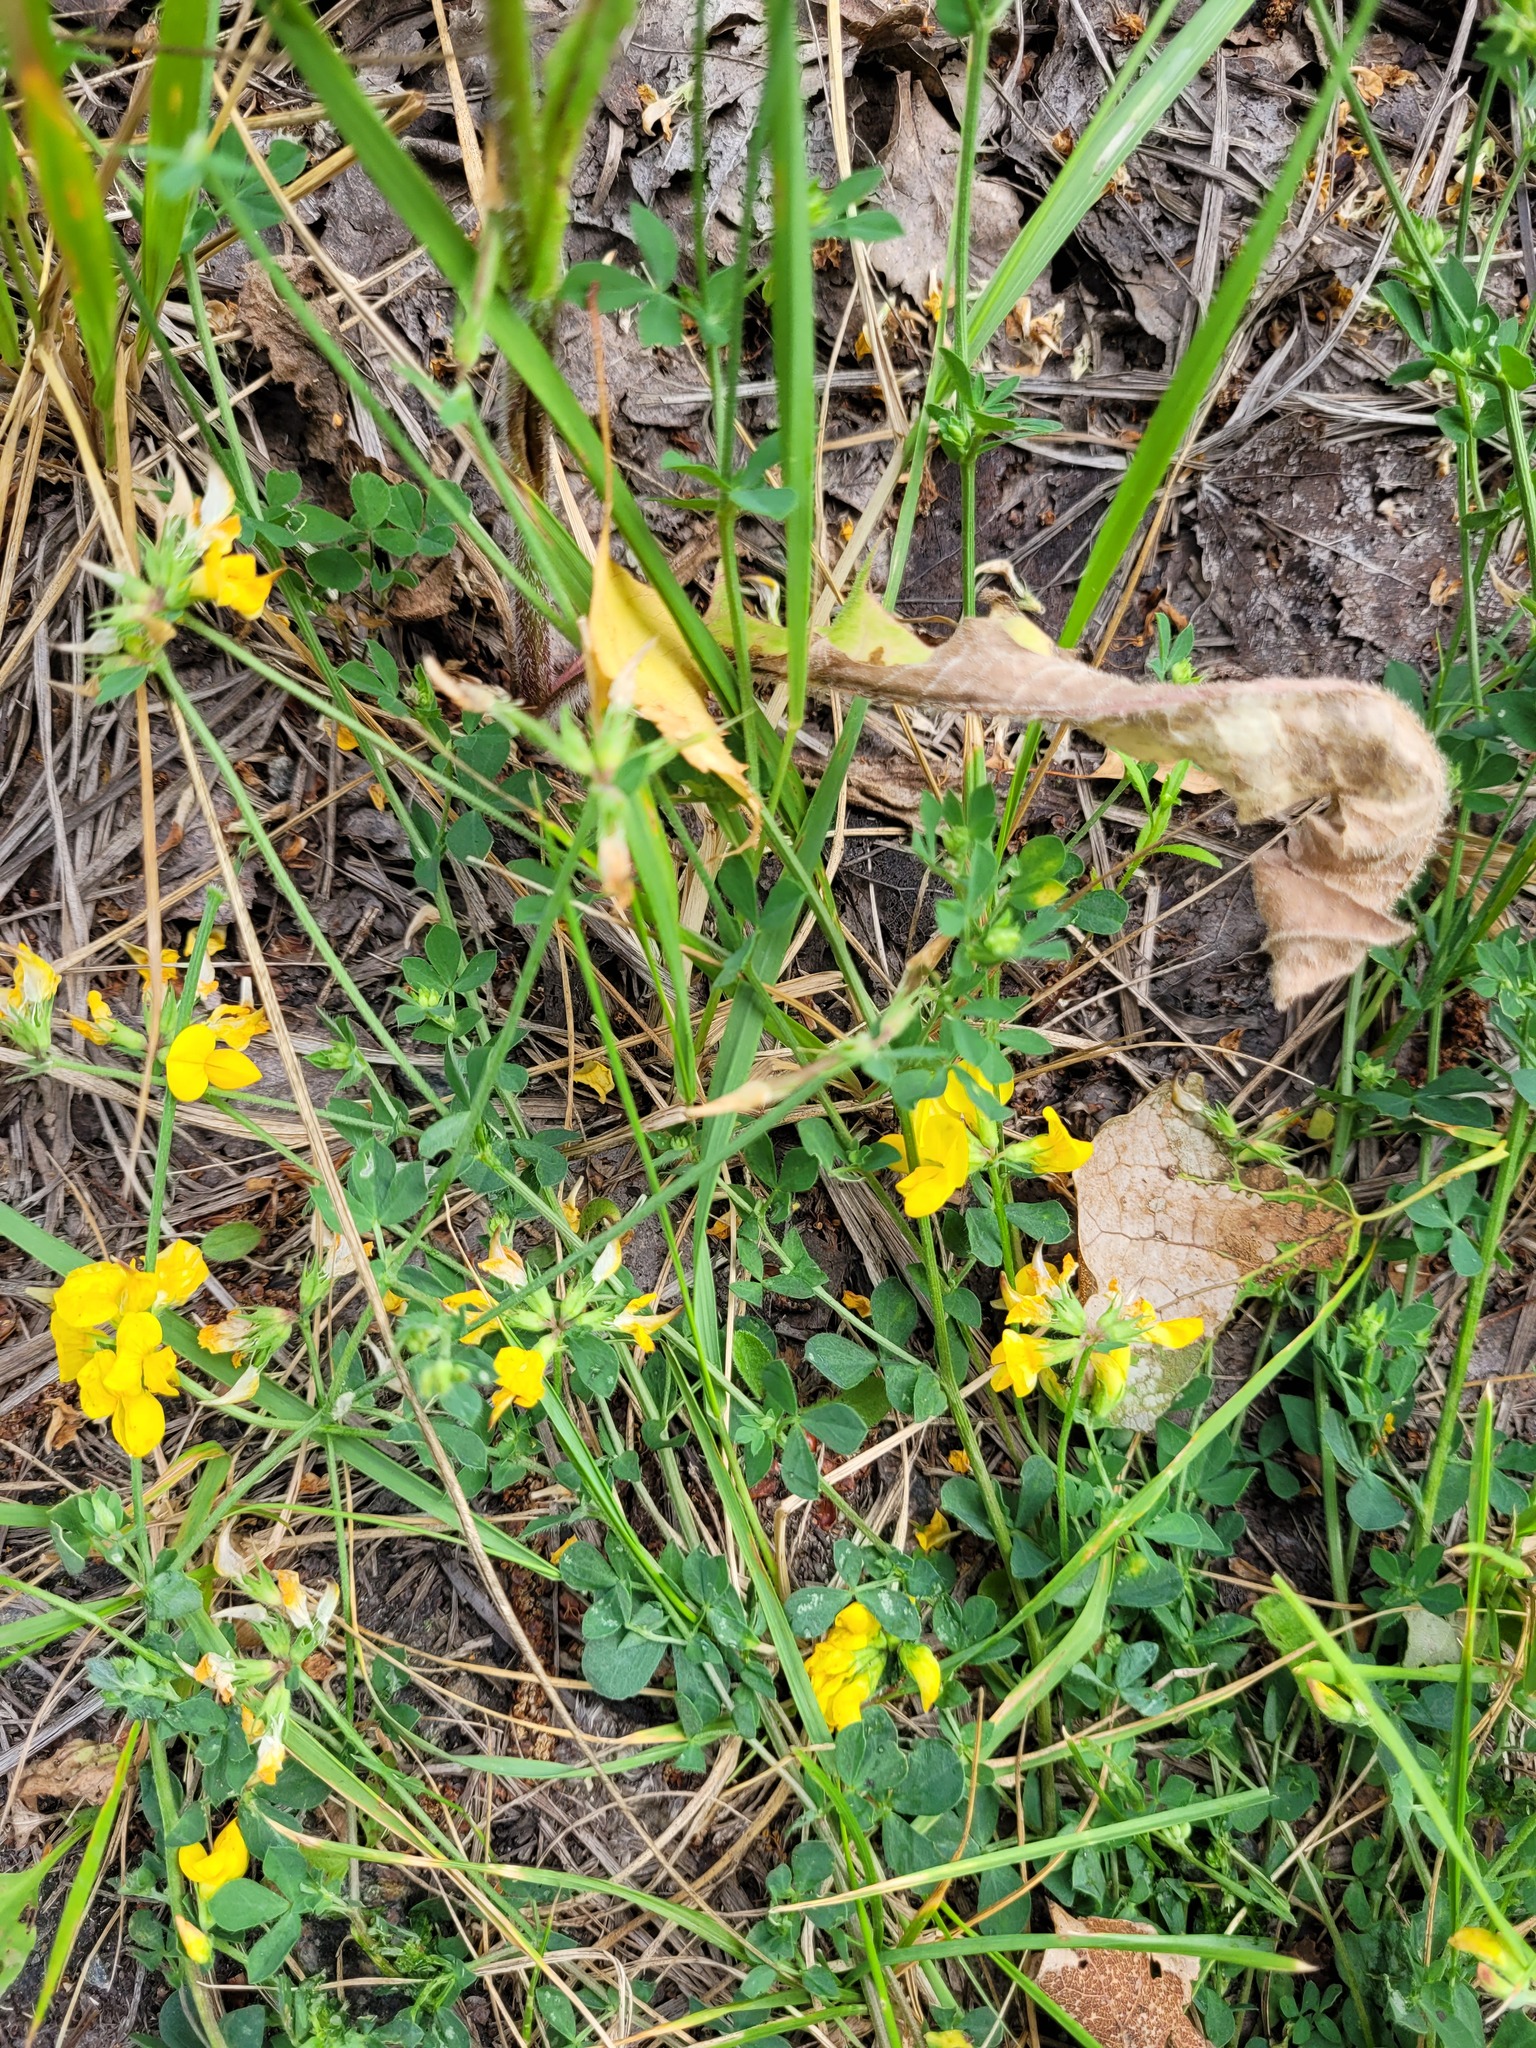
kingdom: Plantae
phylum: Tracheophyta
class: Magnoliopsida
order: Fabales
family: Fabaceae
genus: Lotus
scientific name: Lotus corniculatus
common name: Common bird's-foot-trefoil
